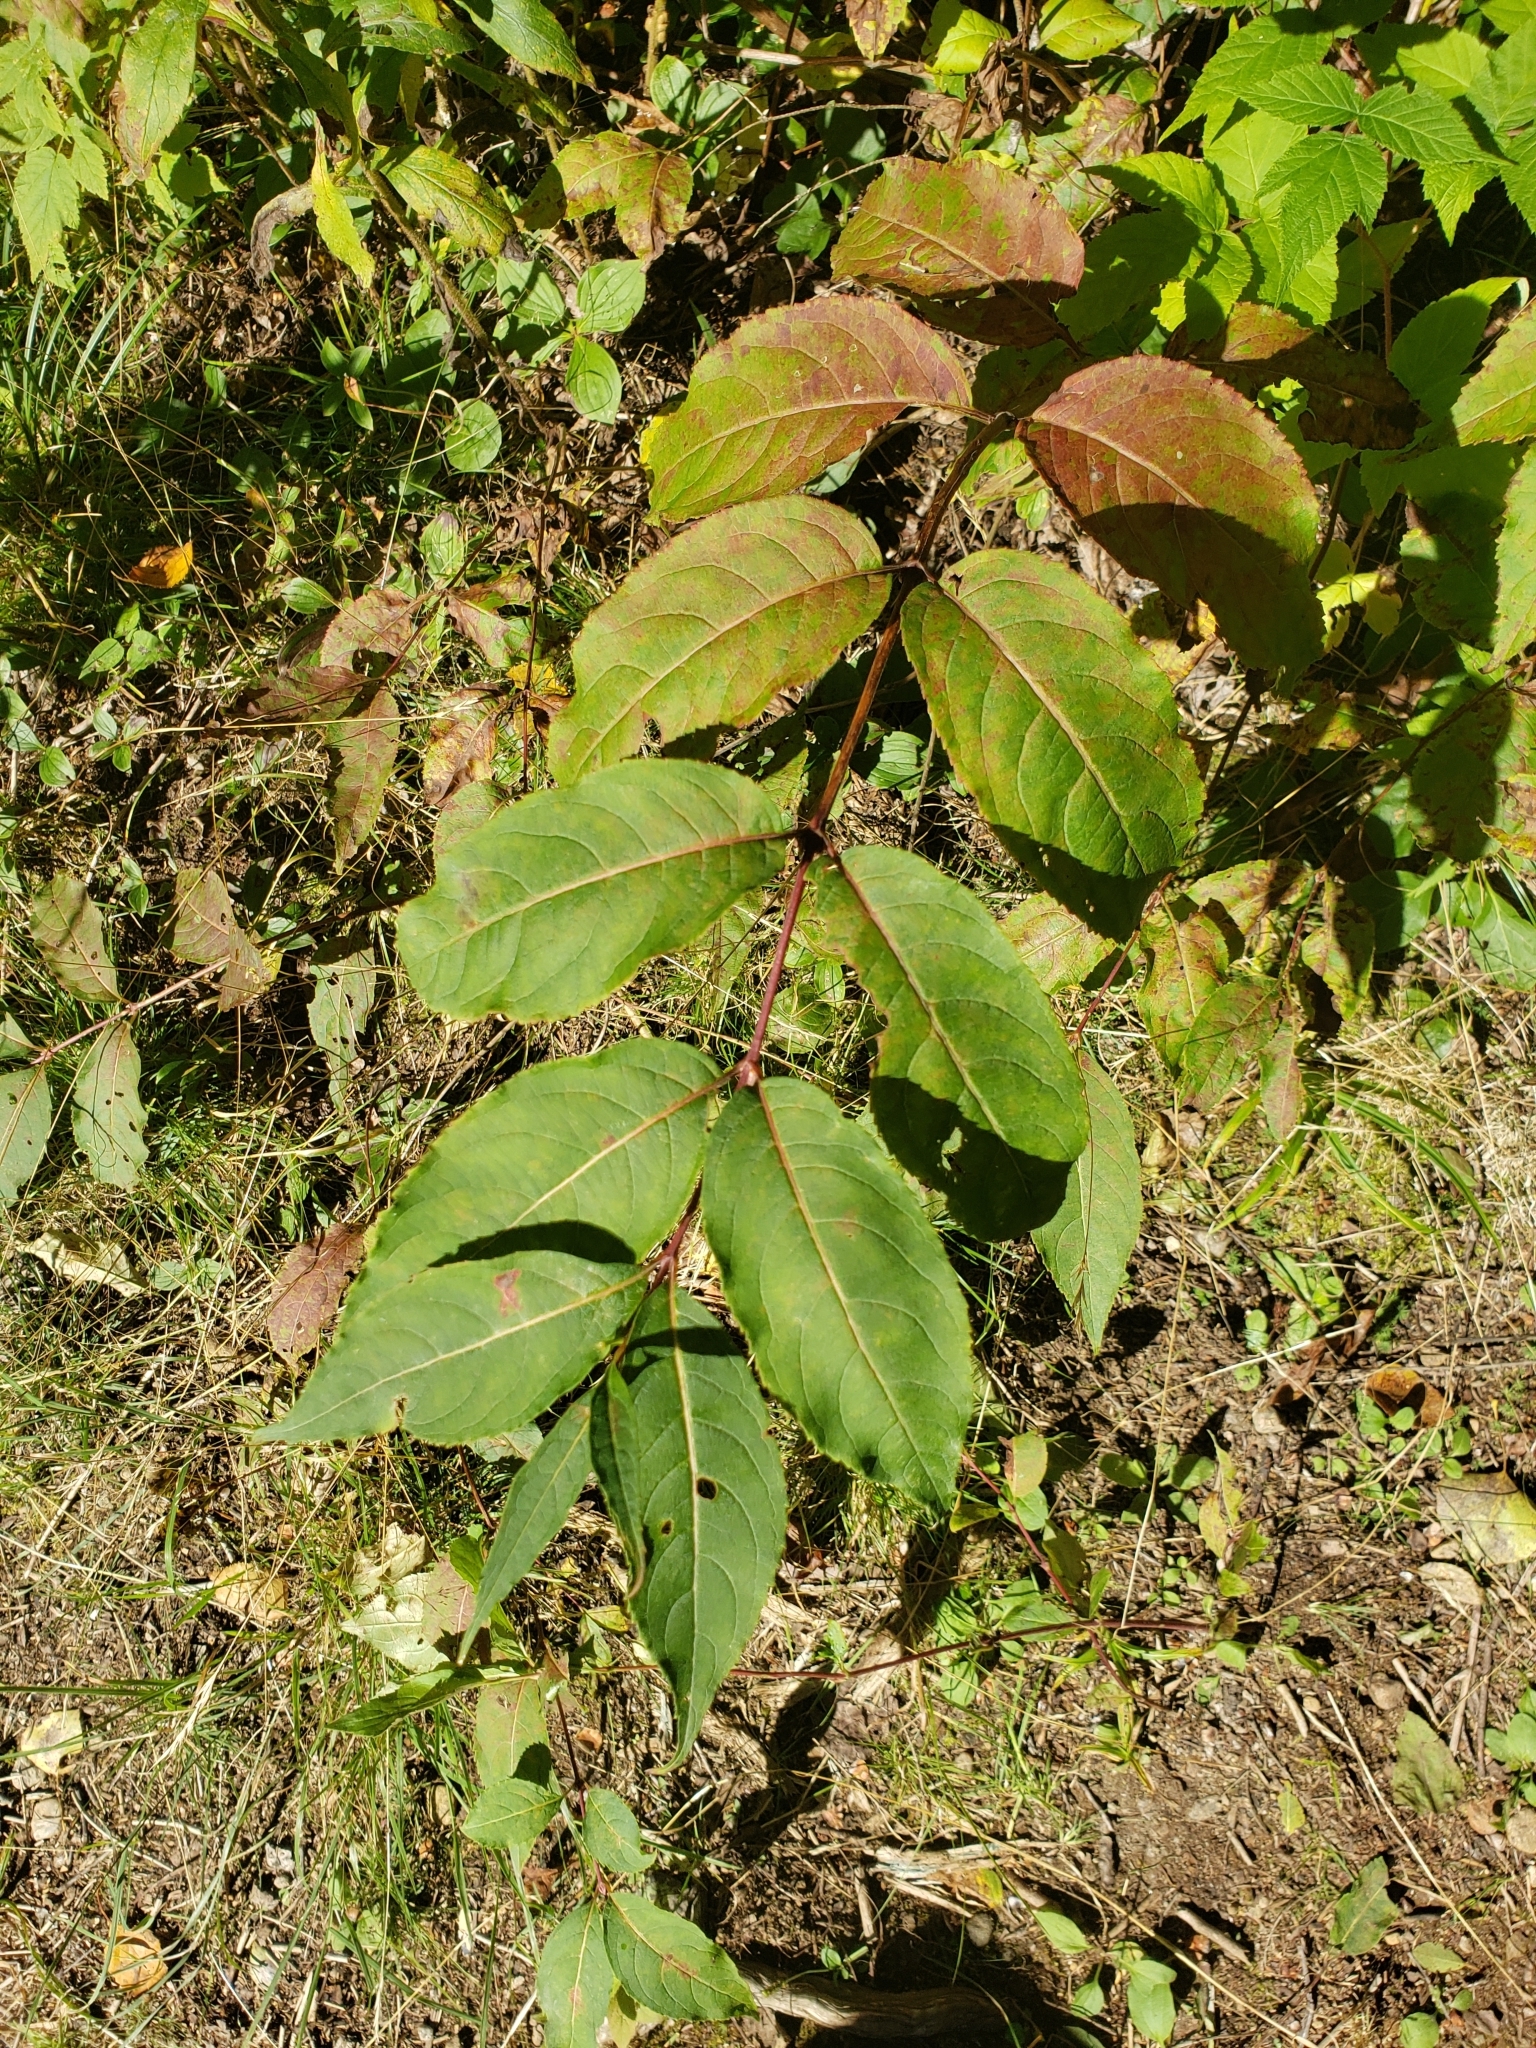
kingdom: Plantae
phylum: Tracheophyta
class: Magnoliopsida
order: Dipsacales
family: Caprifoliaceae
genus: Diervilla
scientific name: Diervilla lonicera
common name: Bush-honeysuckle
